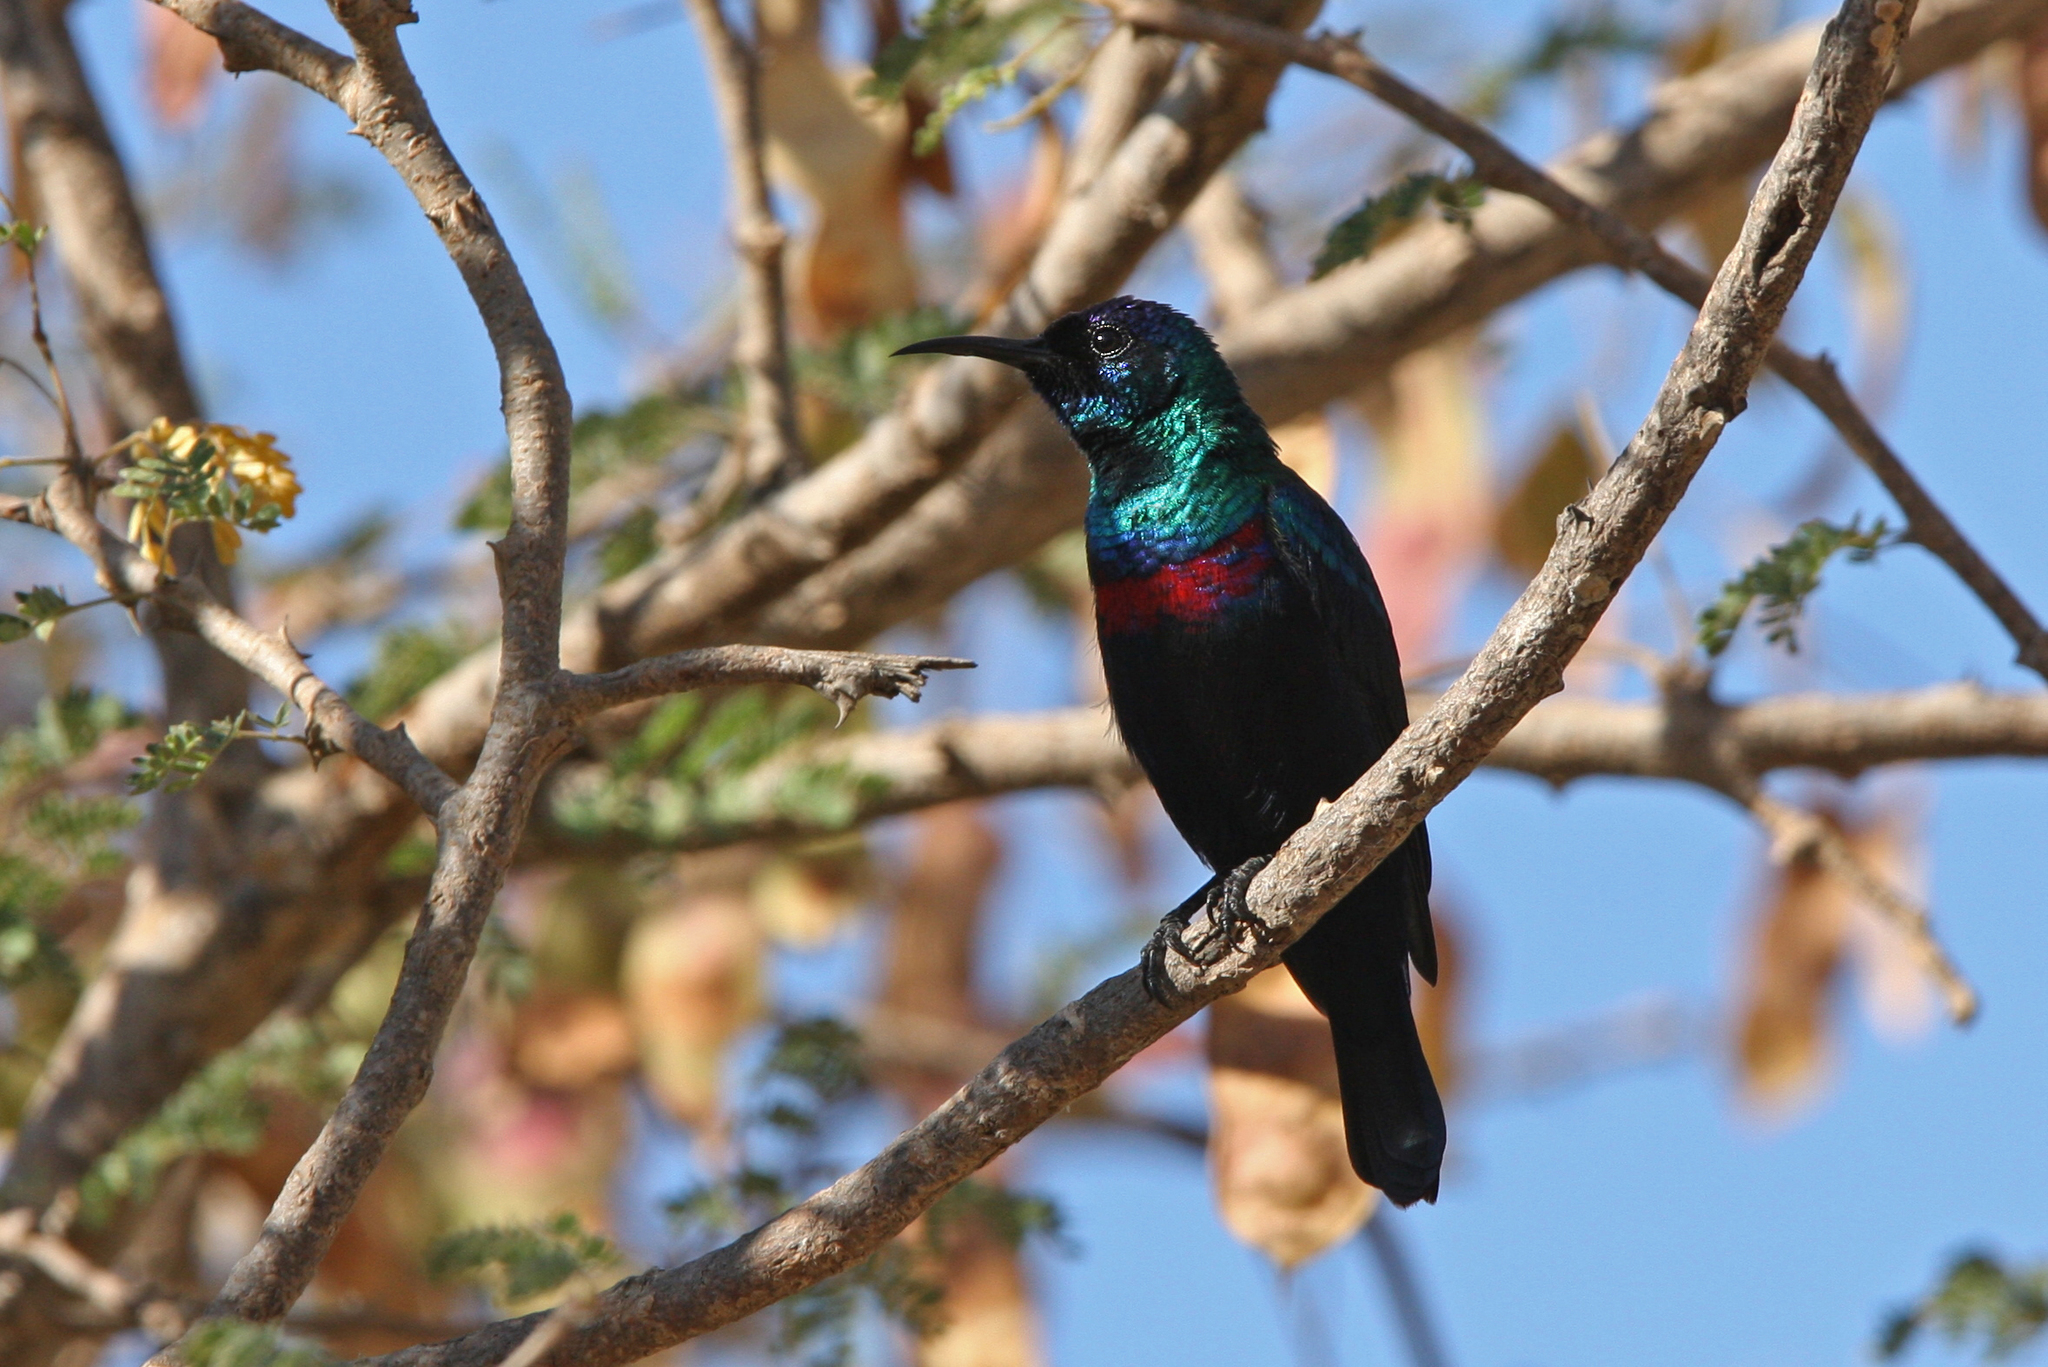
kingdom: Animalia
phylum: Chordata
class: Aves
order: Passeriformes
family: Nectariniidae
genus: Cinnyris
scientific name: Cinnyris habessinicus
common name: Shining sunbird
